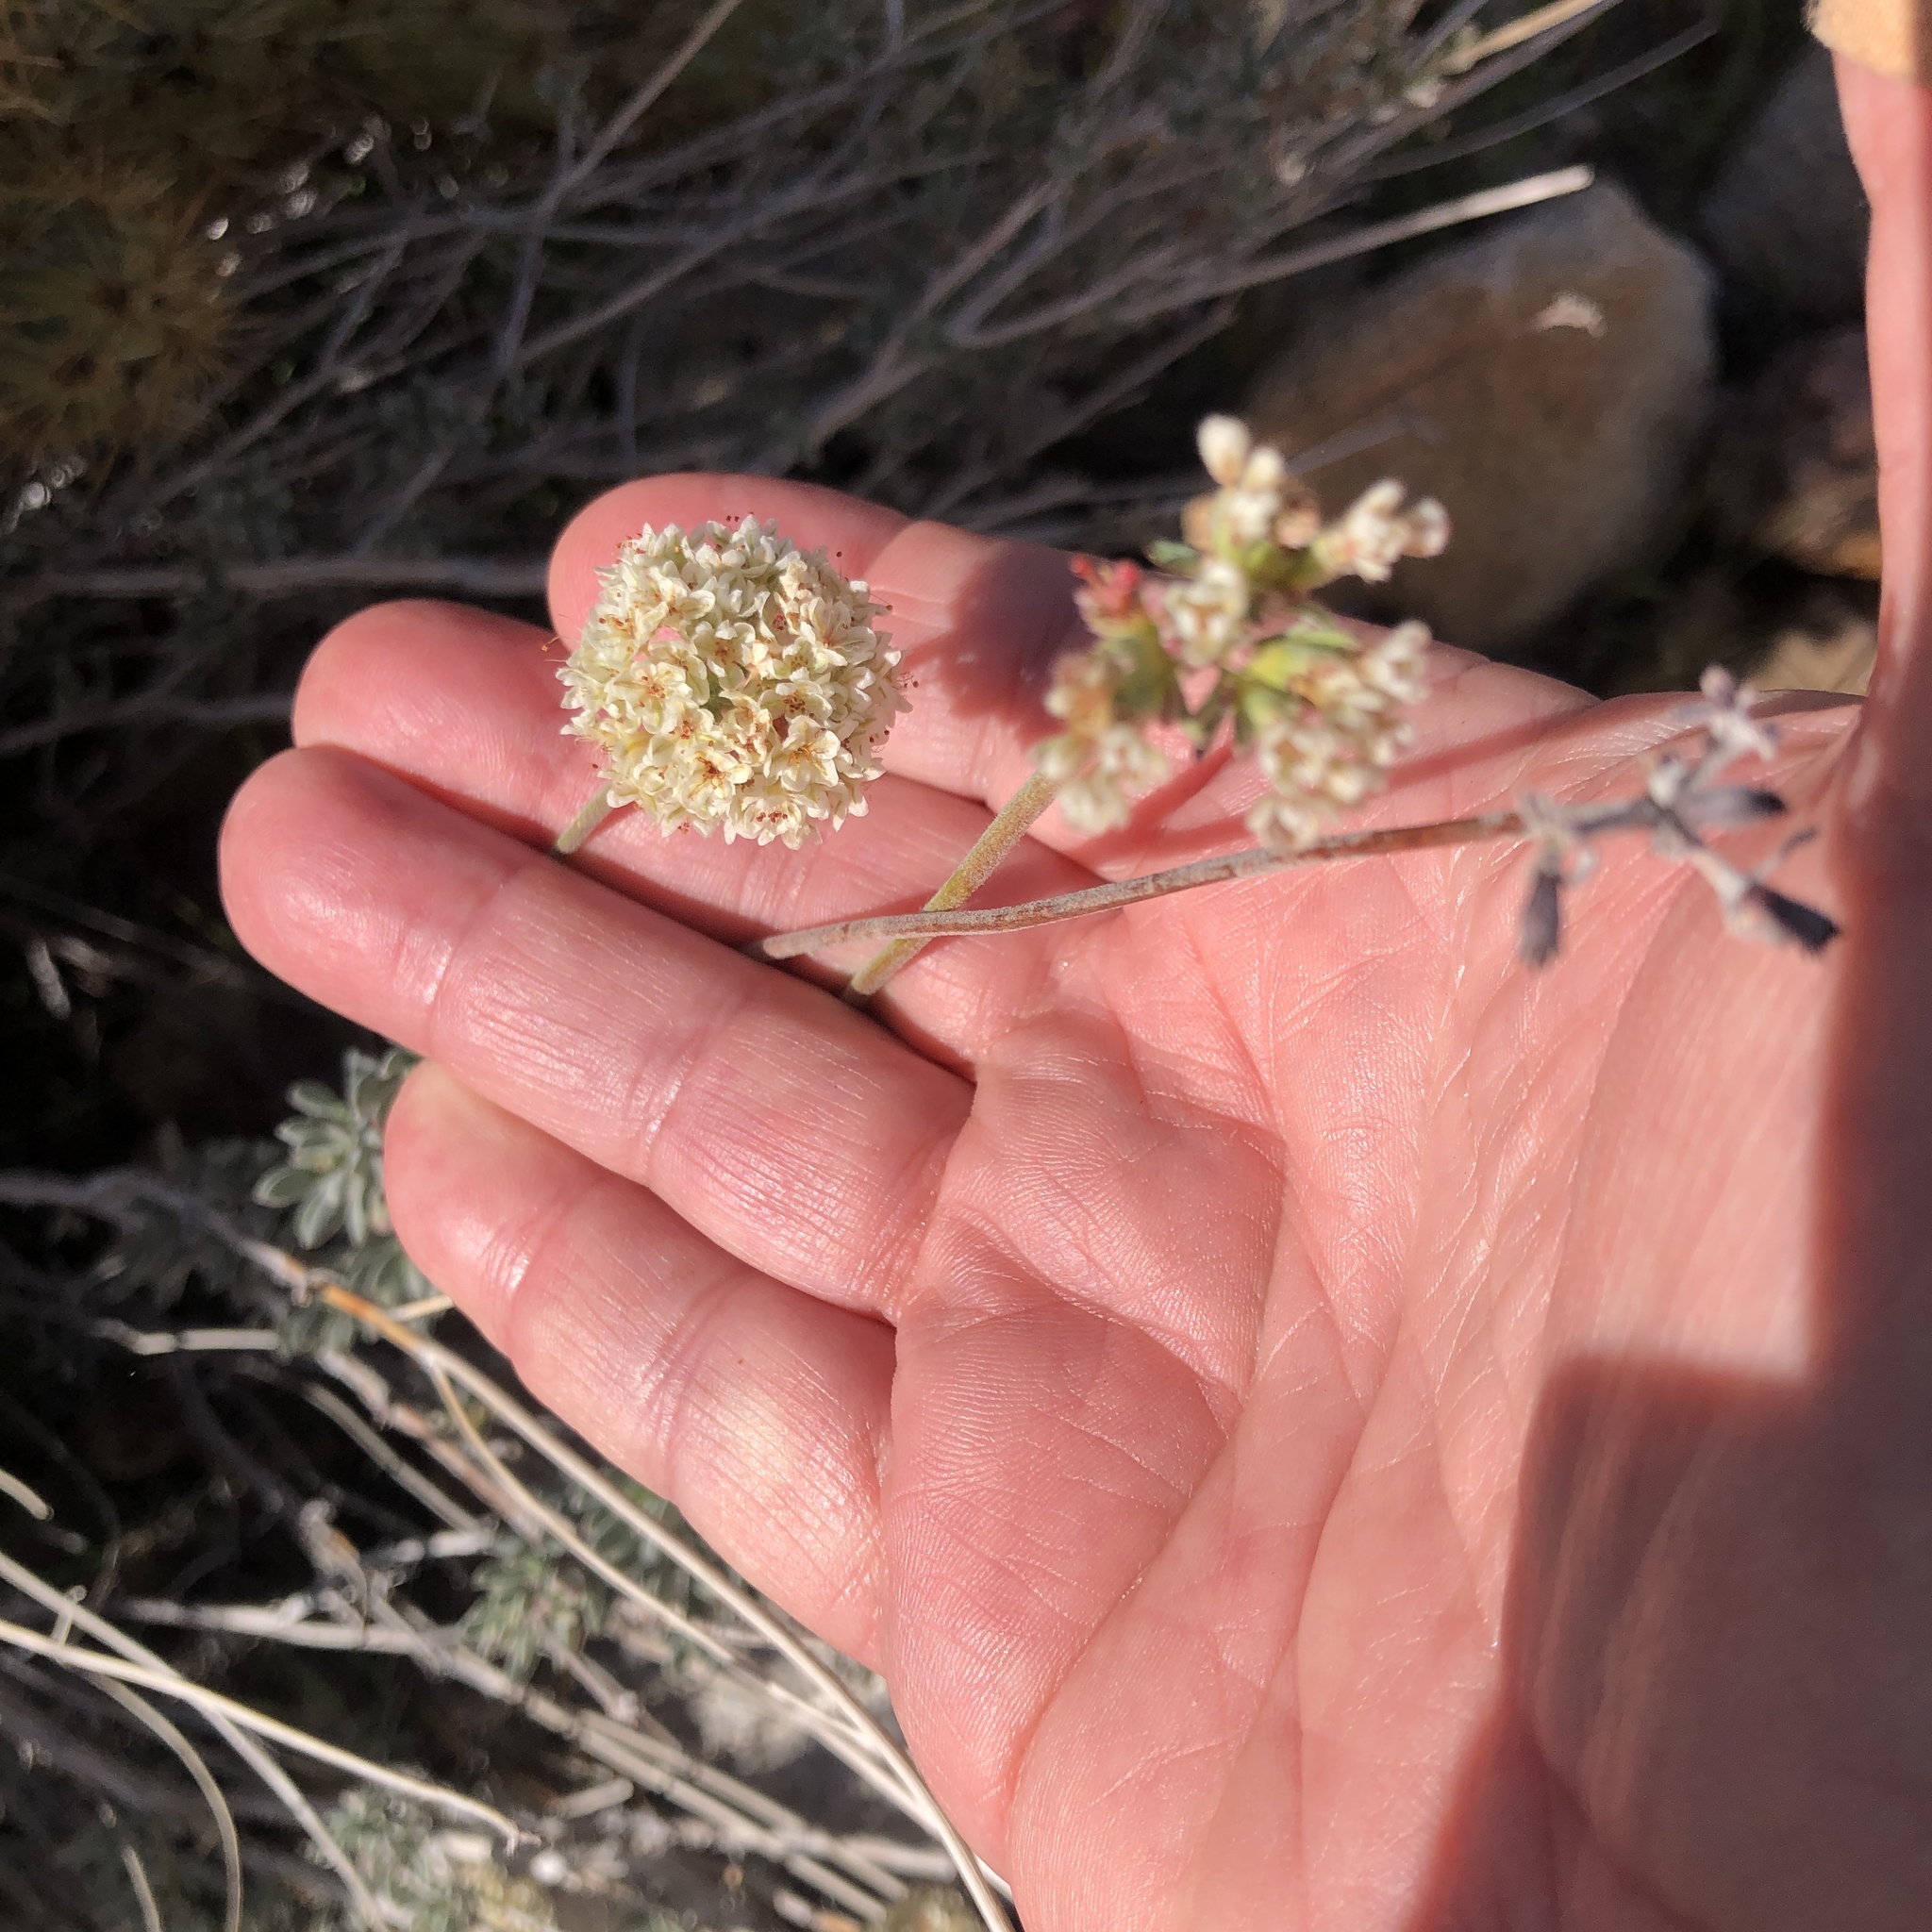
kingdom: Plantae
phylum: Tracheophyta
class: Magnoliopsida
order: Caryophyllales
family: Polygonaceae
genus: Eriogonum
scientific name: Eriogonum fasciculatum
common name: California wild buckwheat
